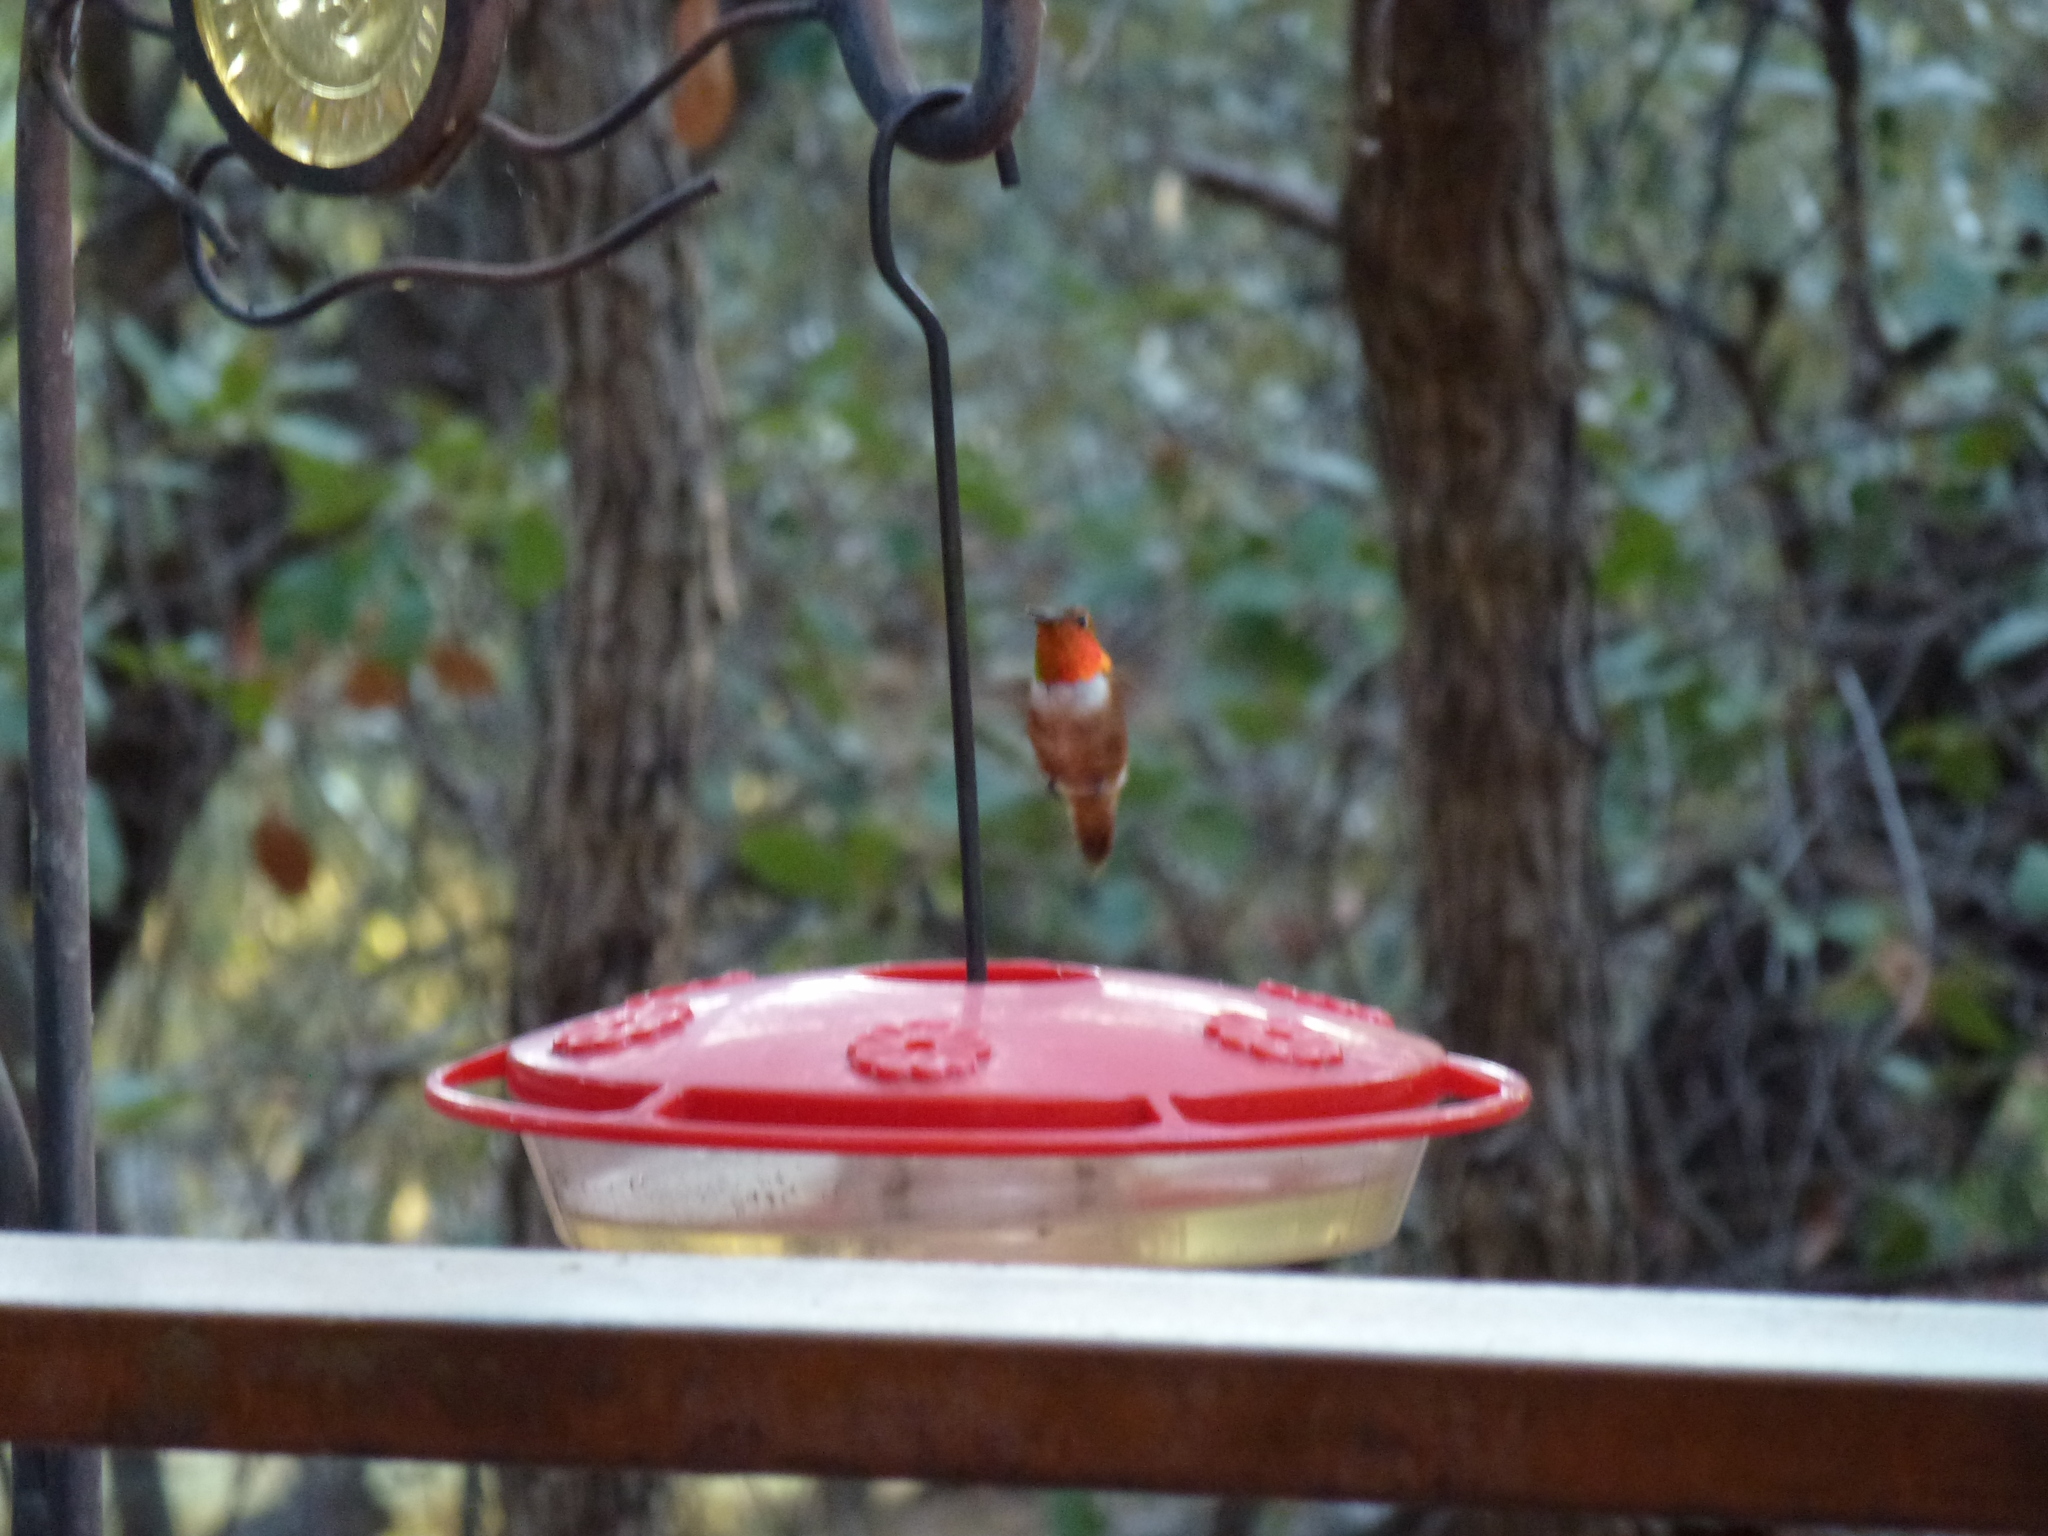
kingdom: Animalia
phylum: Chordata
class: Aves
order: Apodiformes
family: Trochilidae
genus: Selasphorus
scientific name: Selasphorus rufus
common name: Rufous hummingbird
